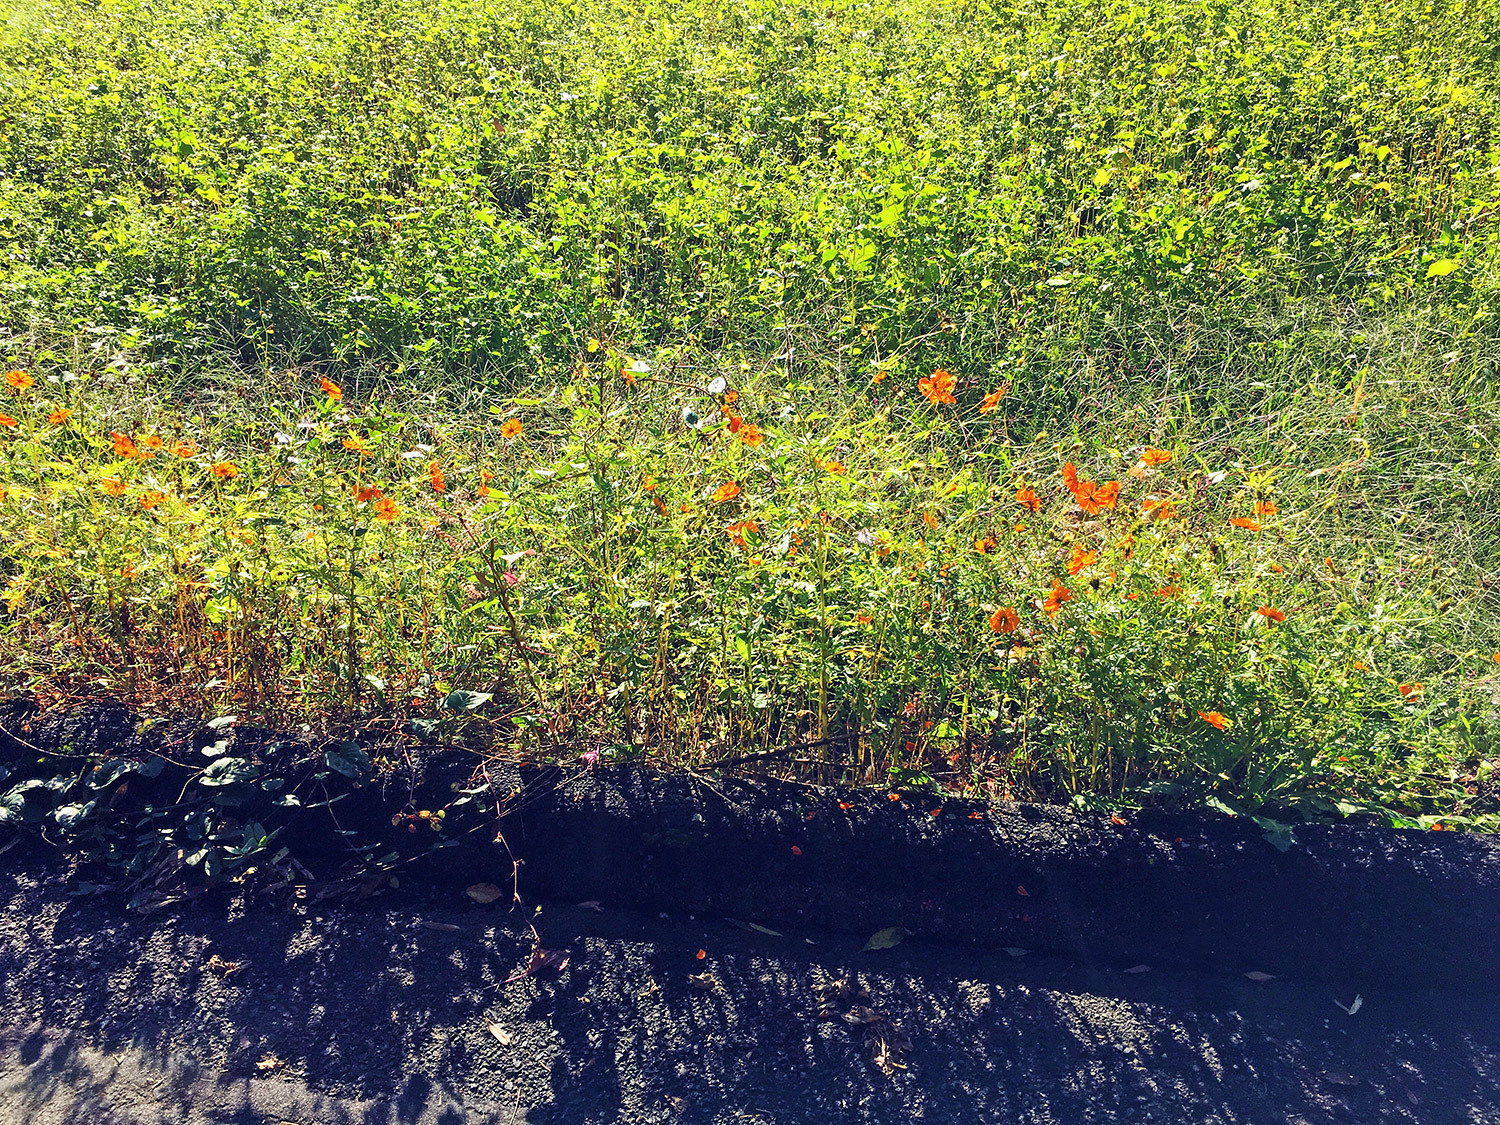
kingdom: Plantae
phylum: Tracheophyta
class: Magnoliopsida
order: Asterales
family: Asteraceae
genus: Cosmos
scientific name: Cosmos sulphureus
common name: Sulphur cosmos
